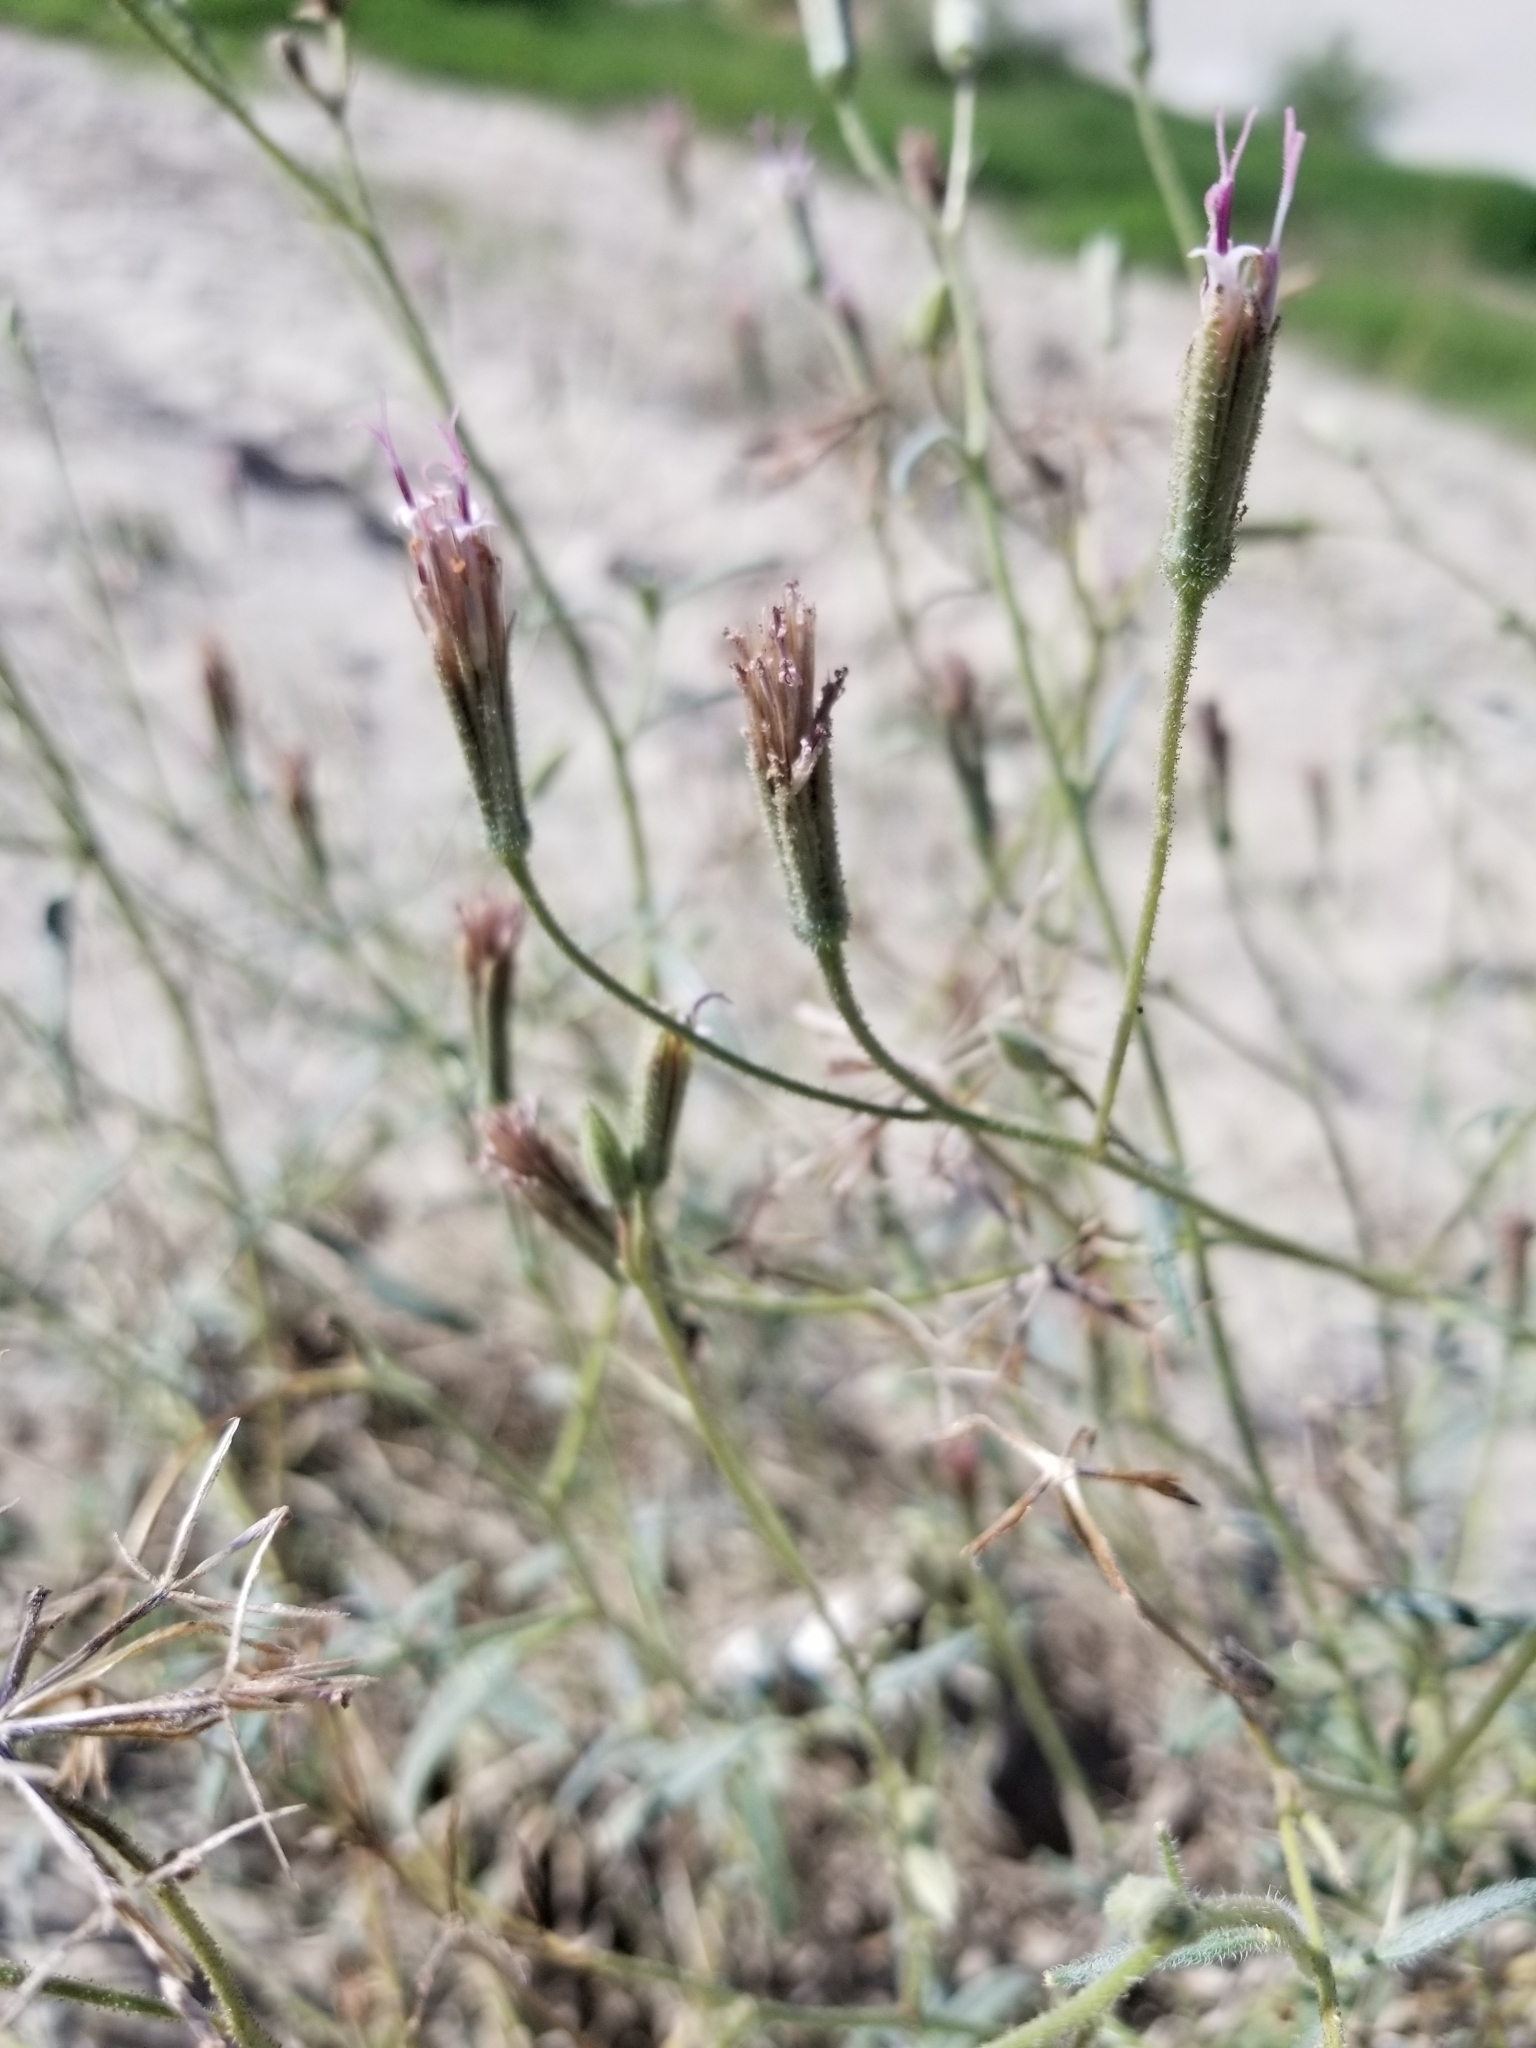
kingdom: Plantae
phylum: Tracheophyta
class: Magnoliopsida
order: Asterales
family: Asteraceae
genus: Palafoxia
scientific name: Palafoxia arida
